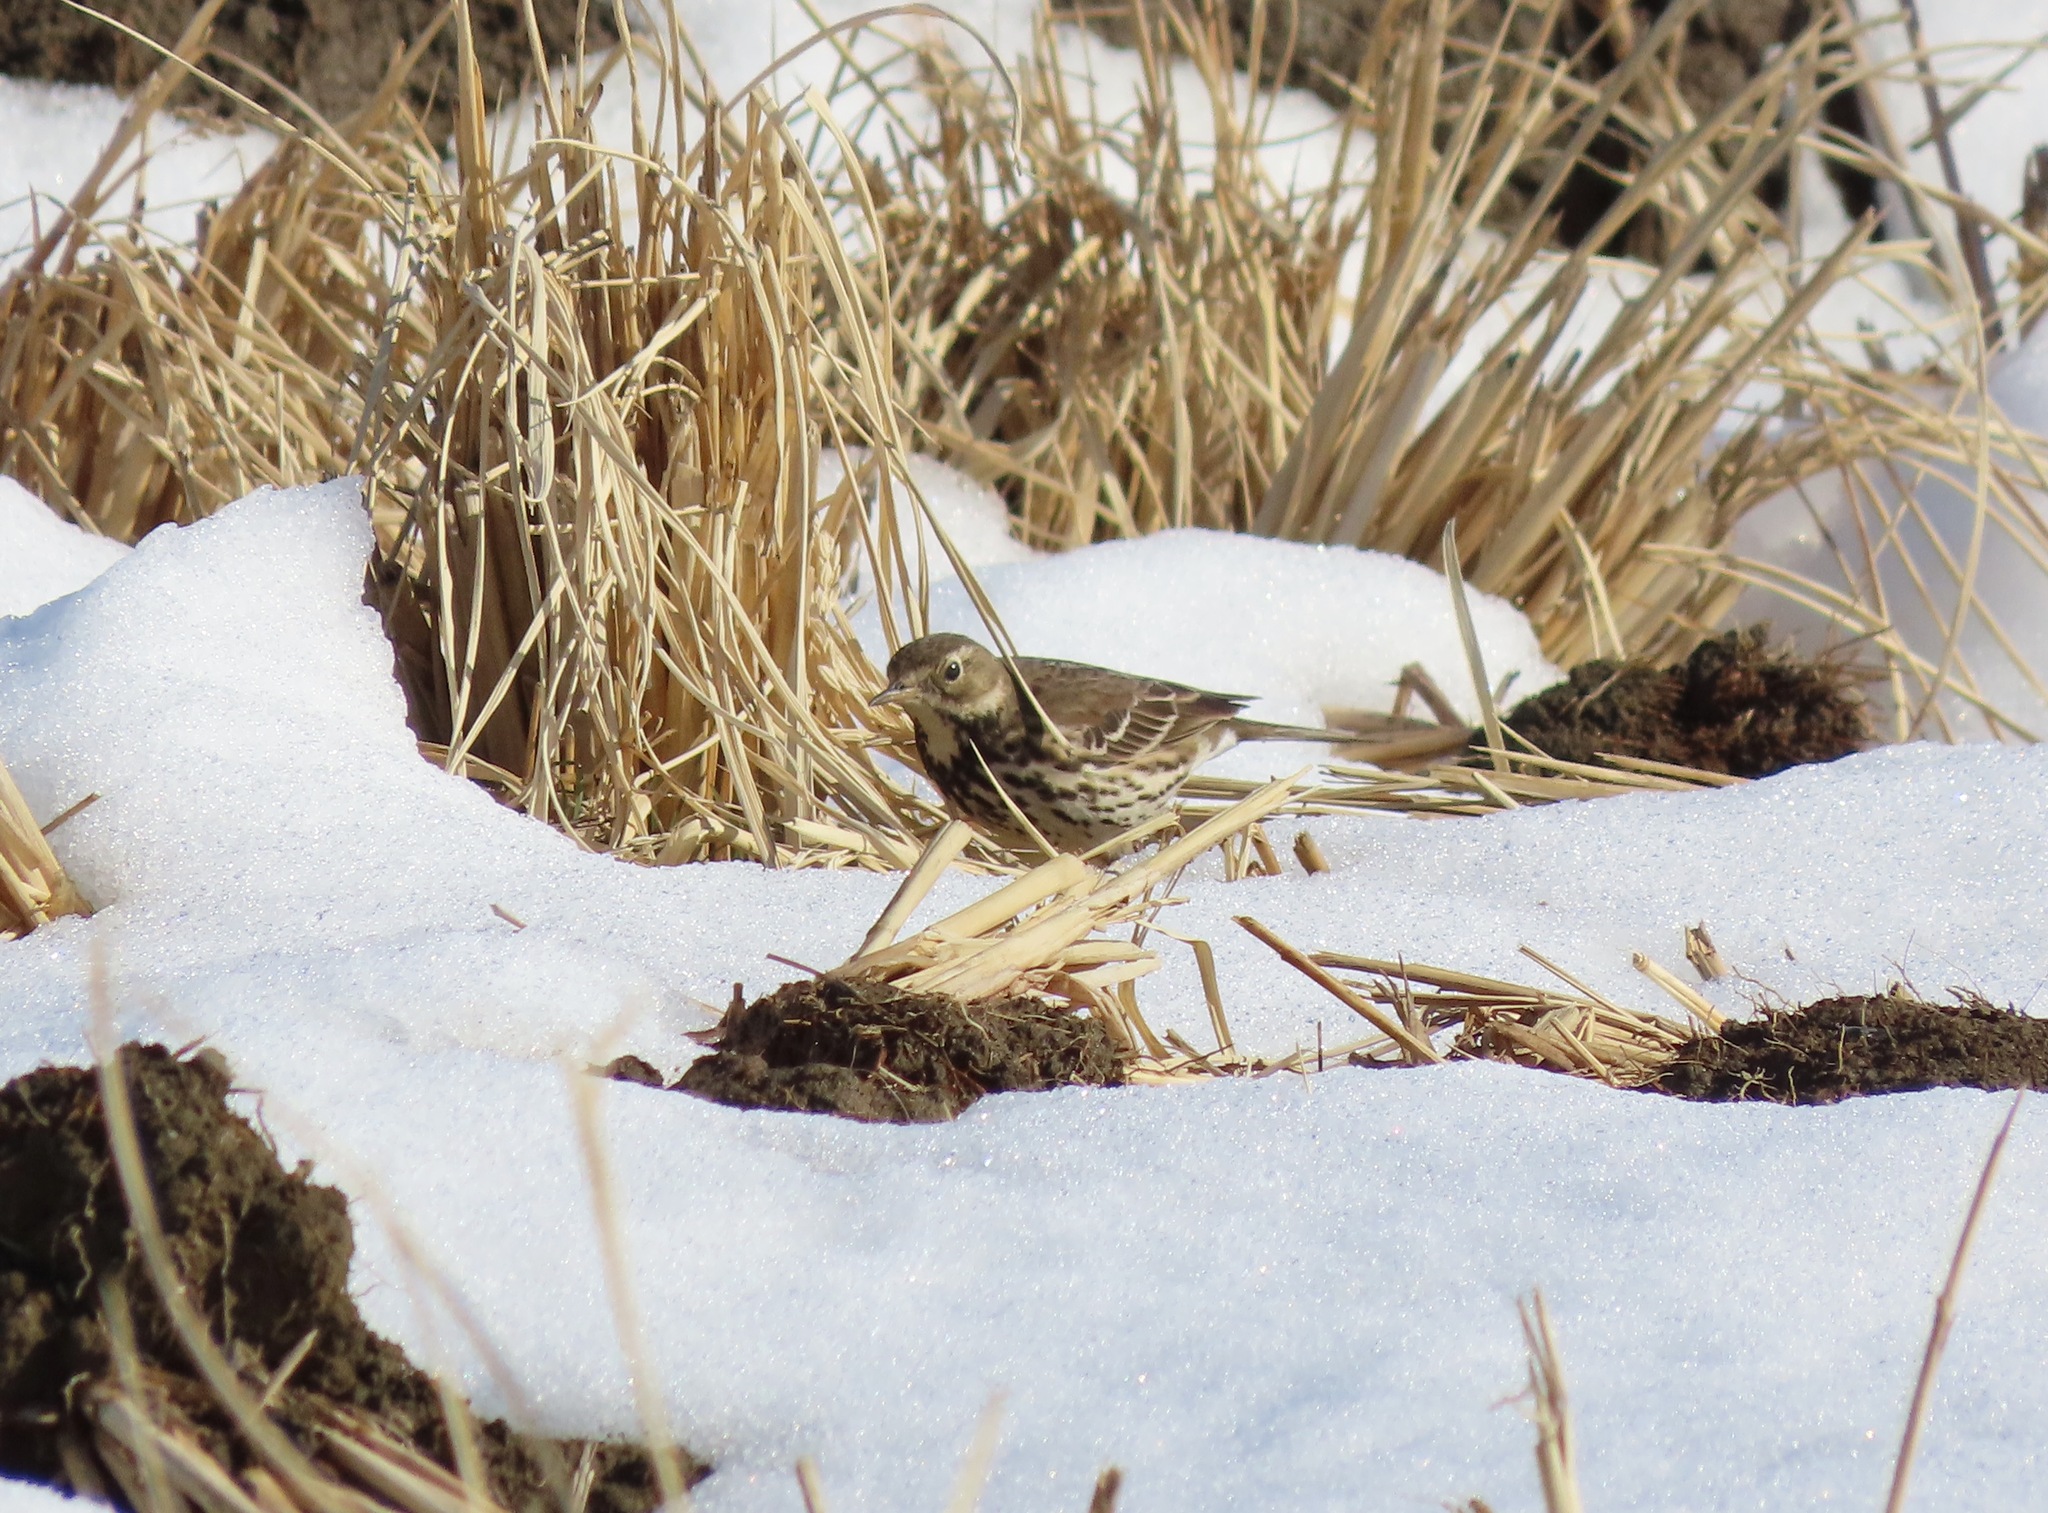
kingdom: Animalia
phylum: Chordata
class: Aves
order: Passeriformes
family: Motacillidae
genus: Anthus
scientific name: Anthus rubescens
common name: Buff-bellied pipit
